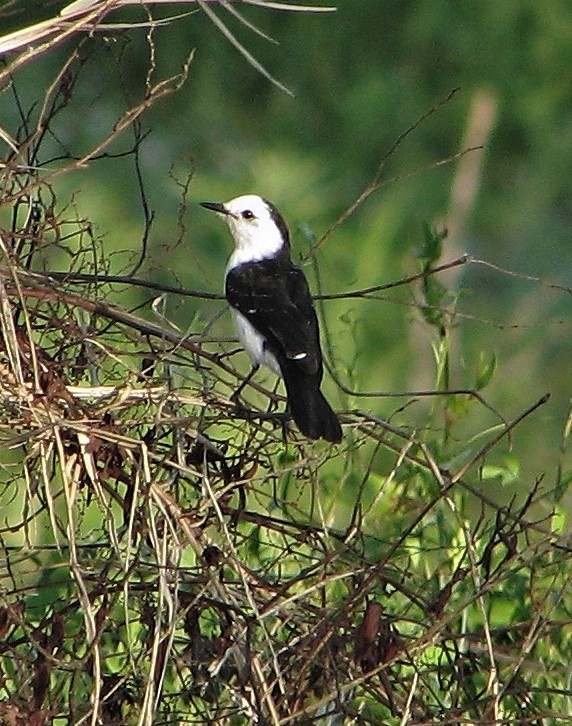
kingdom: Animalia
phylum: Chordata
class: Aves
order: Passeriformes
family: Tyrannidae
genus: Fluvicola
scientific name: Fluvicola pica
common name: Pied water-tyrant
